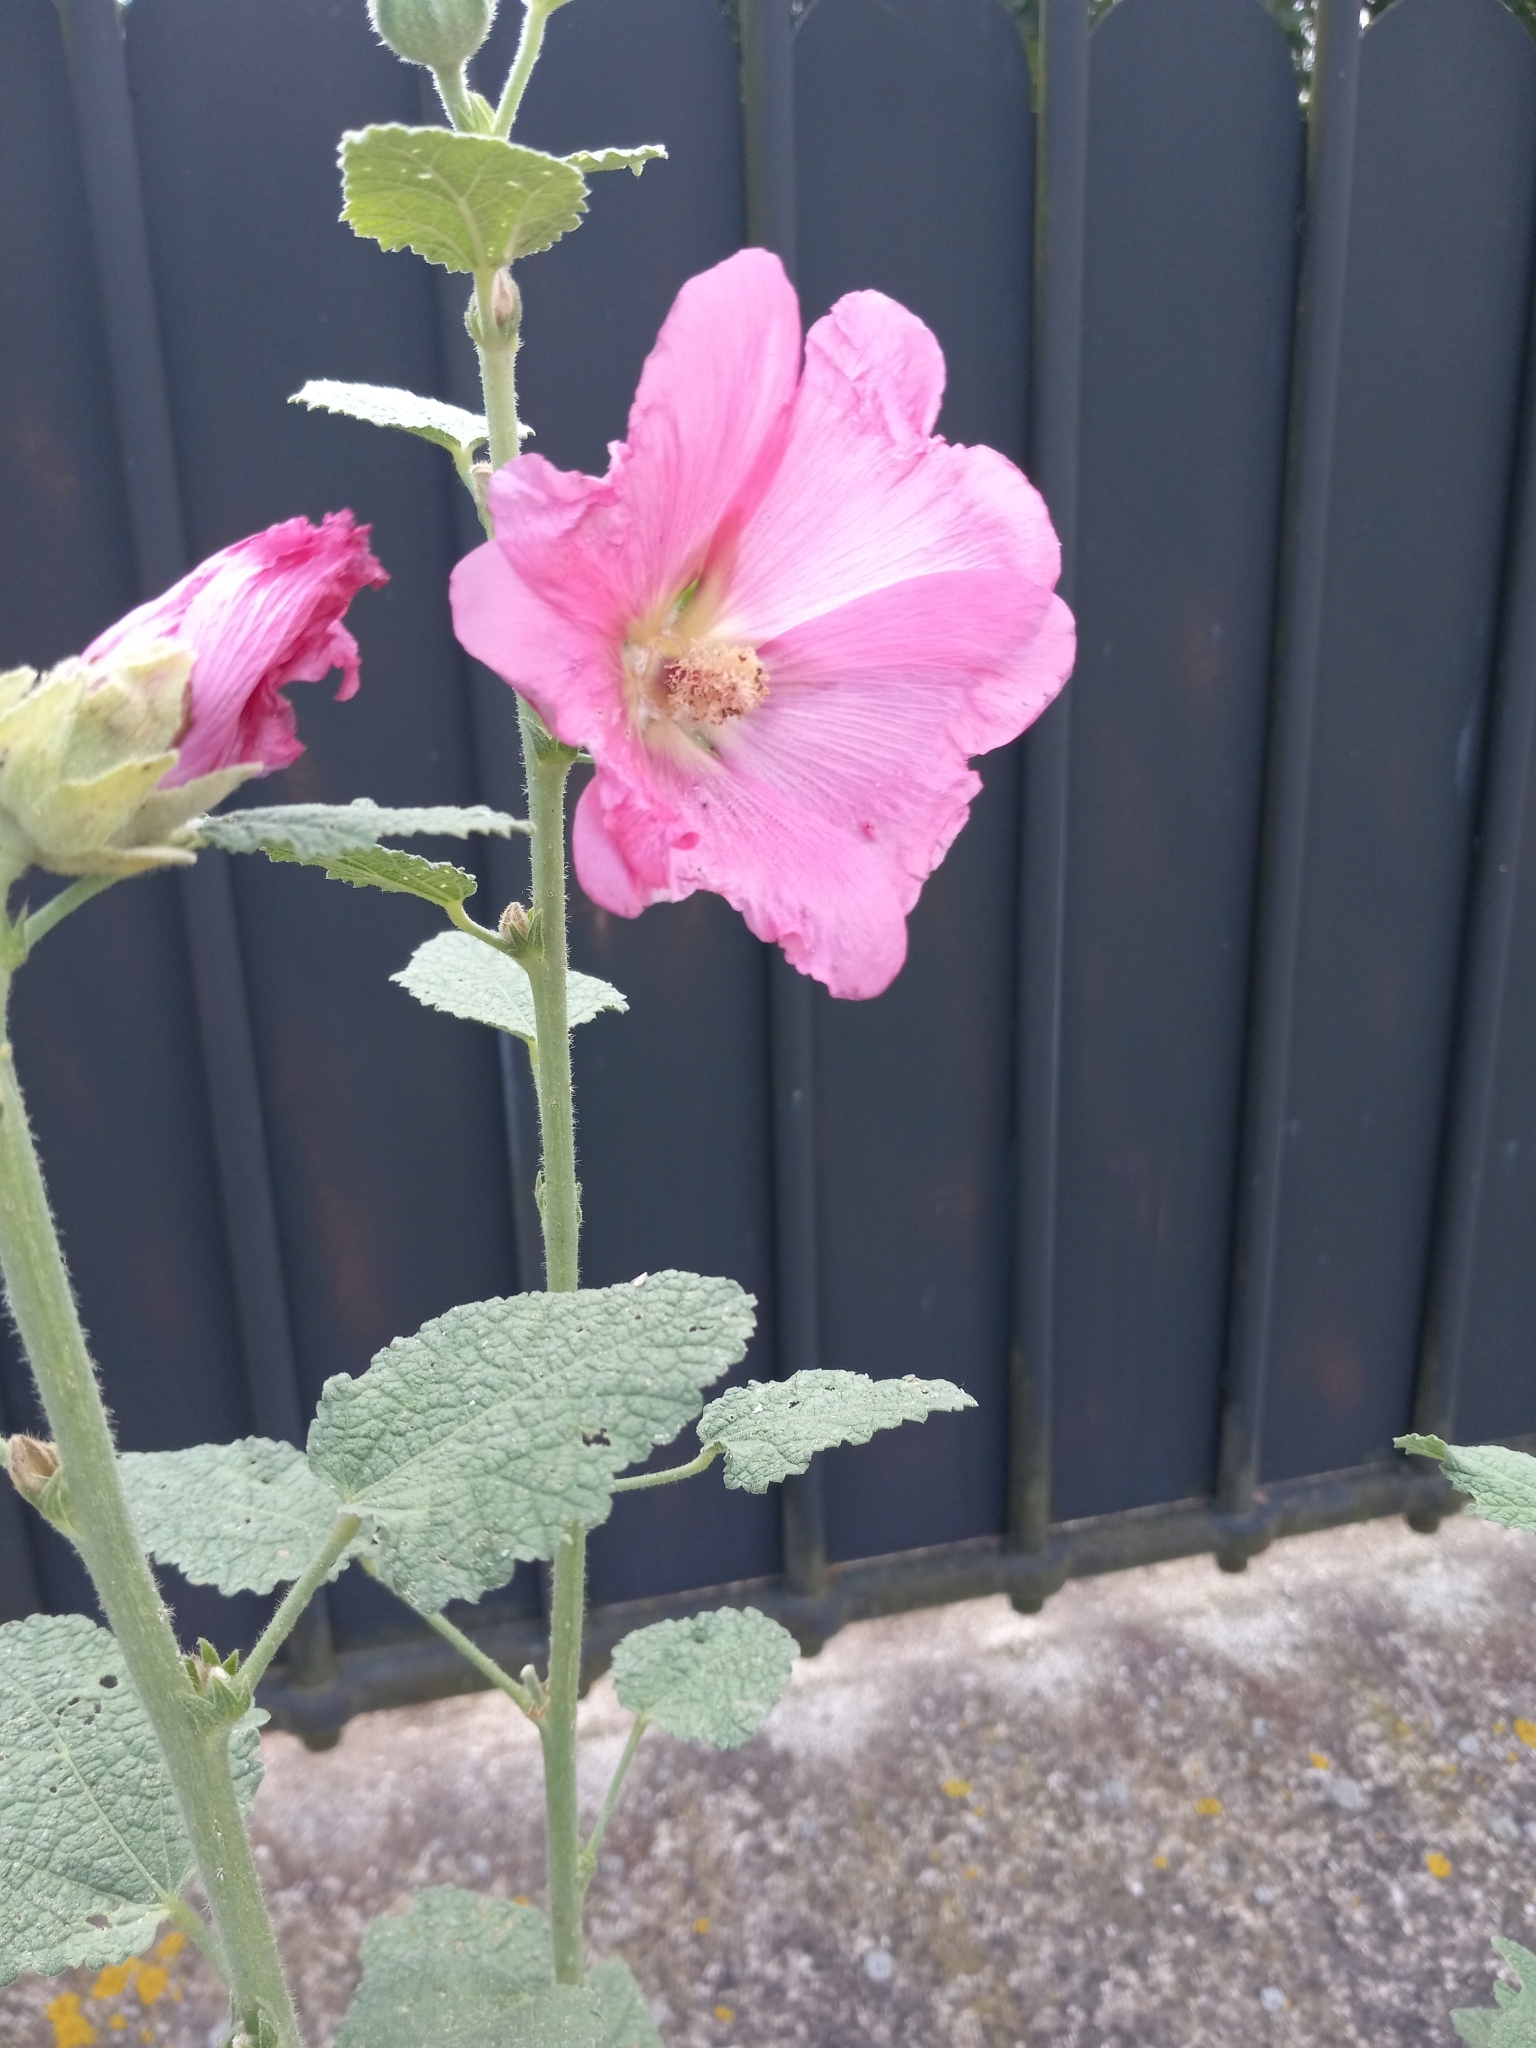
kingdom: Plantae
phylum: Tracheophyta
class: Magnoliopsida
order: Malvales
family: Malvaceae
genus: Alcea
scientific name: Alcea rosea
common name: Hollyhock
